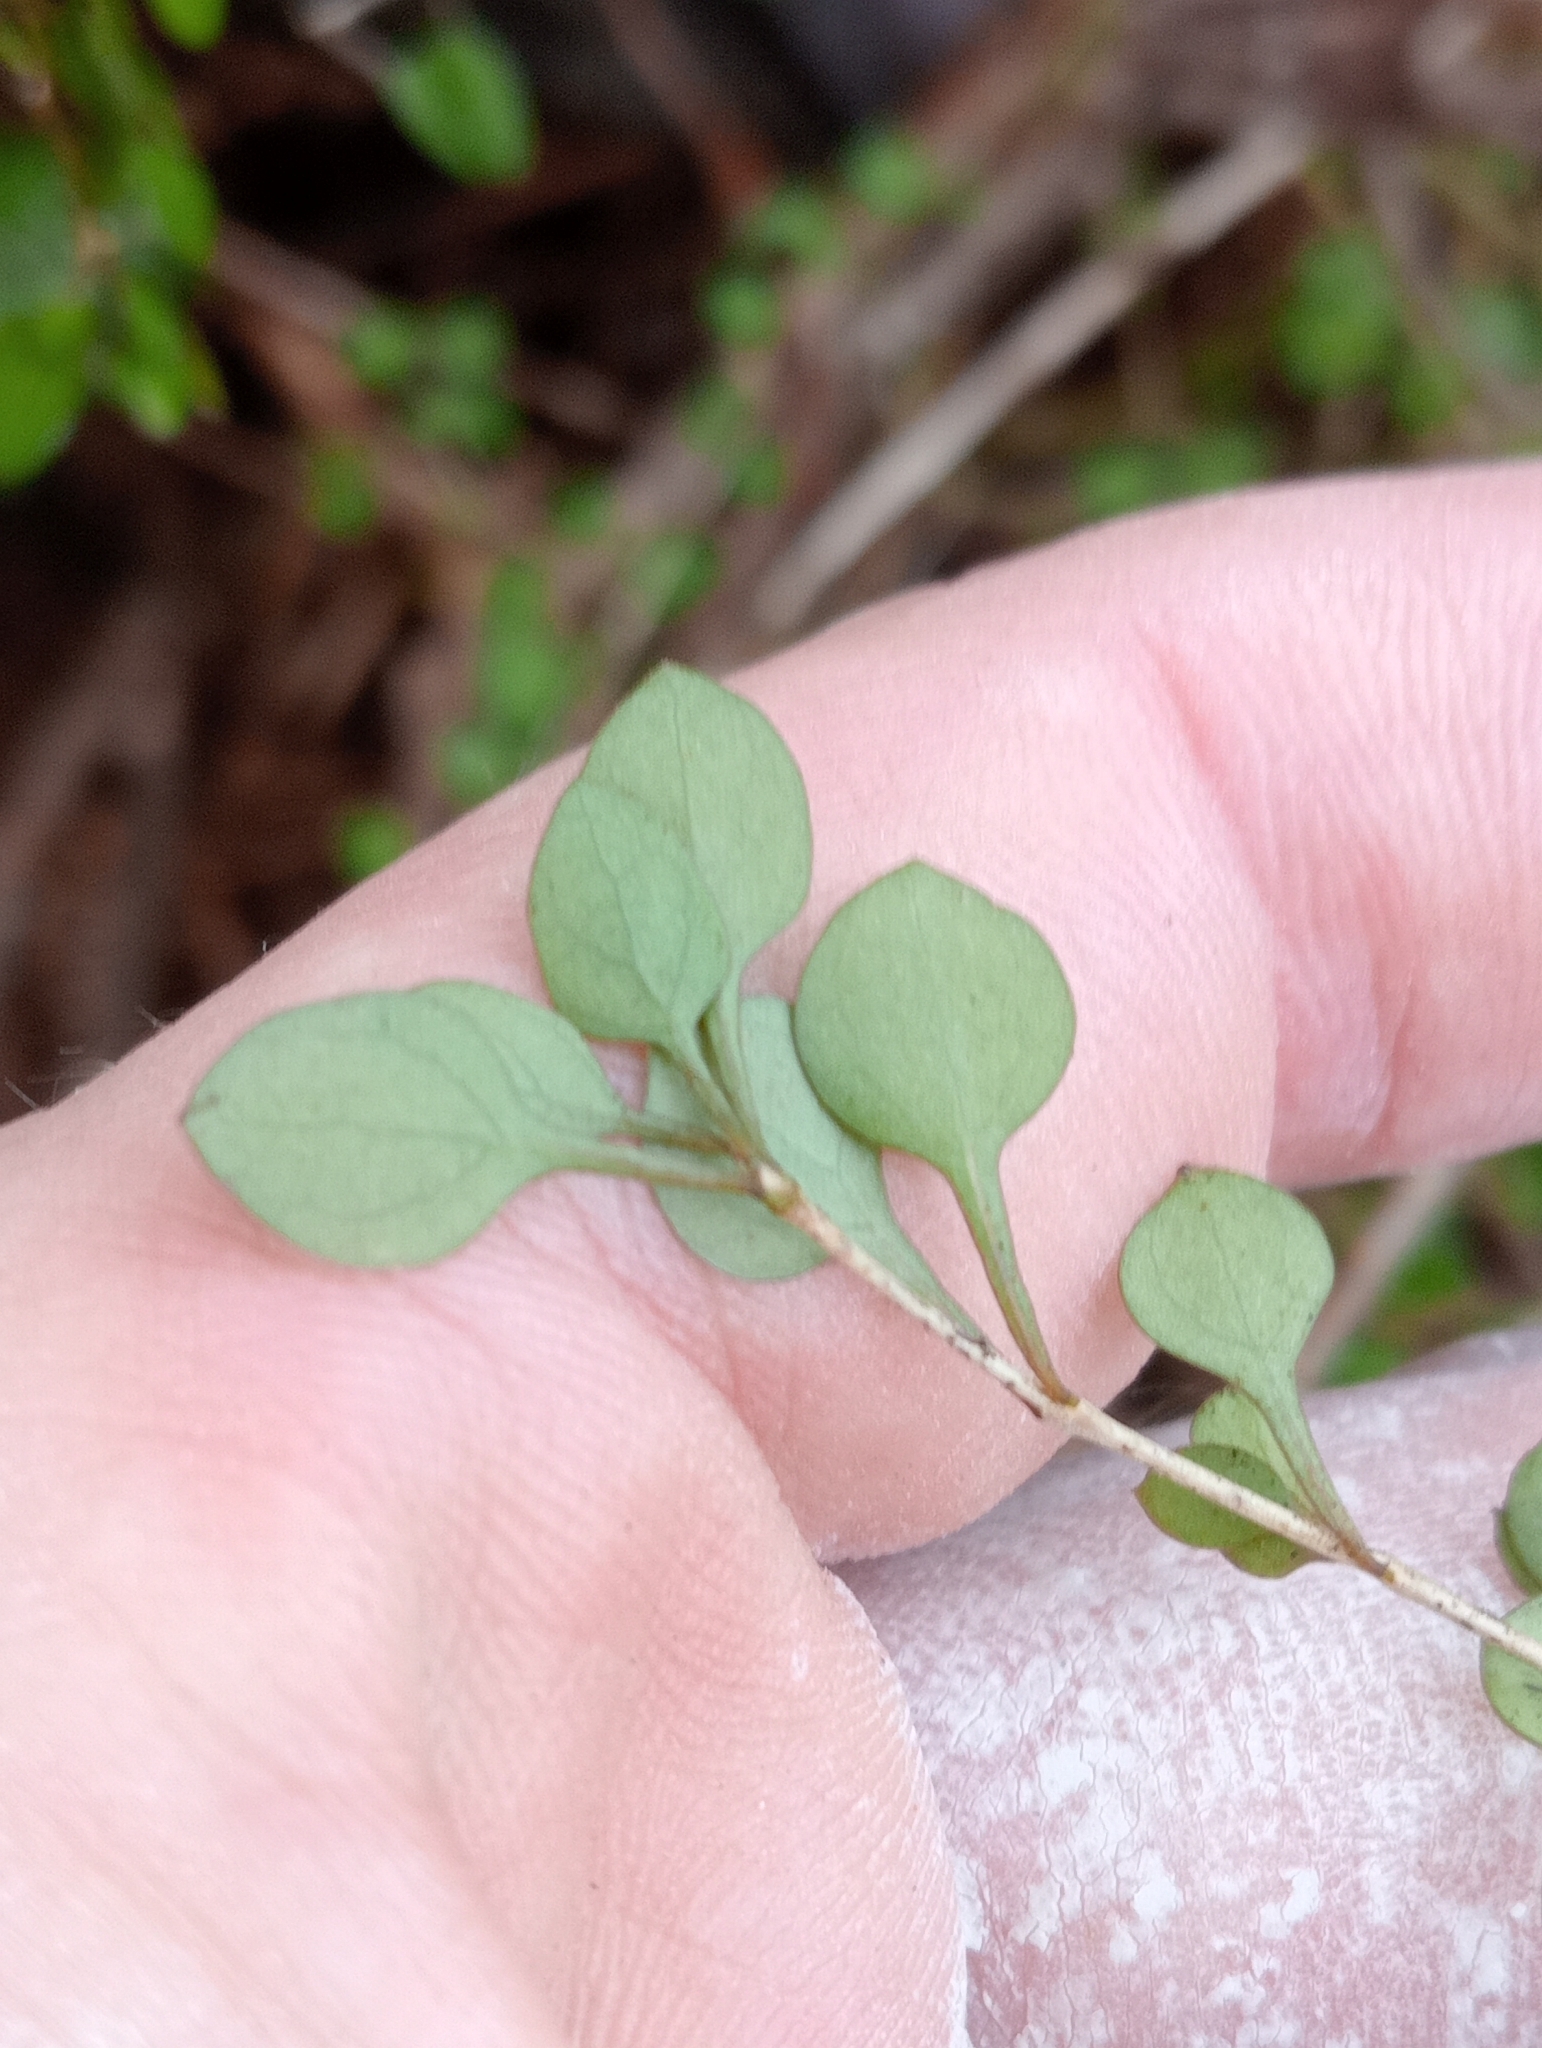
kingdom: Plantae
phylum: Tracheophyta
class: Magnoliopsida
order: Gentianales
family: Rubiaceae
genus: Coprosma
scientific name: Coprosma virescens
